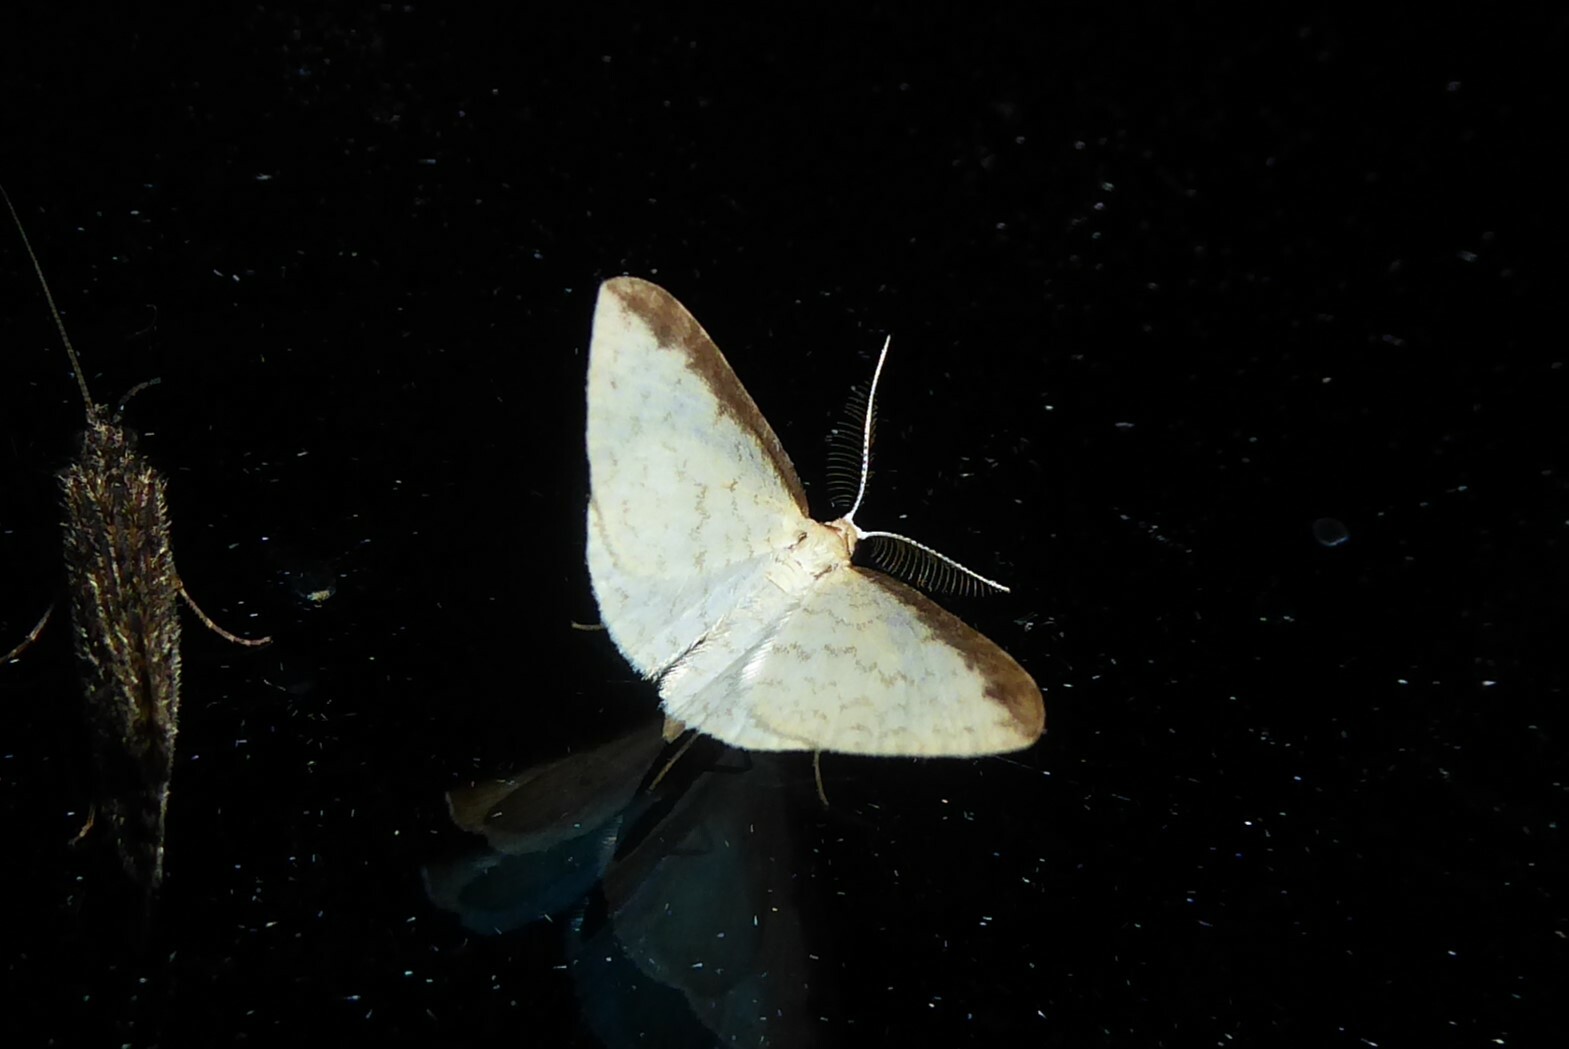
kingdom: Animalia
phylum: Arthropoda
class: Insecta
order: Lepidoptera
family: Geometridae
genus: Epiphryne
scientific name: Epiphryne undosata
